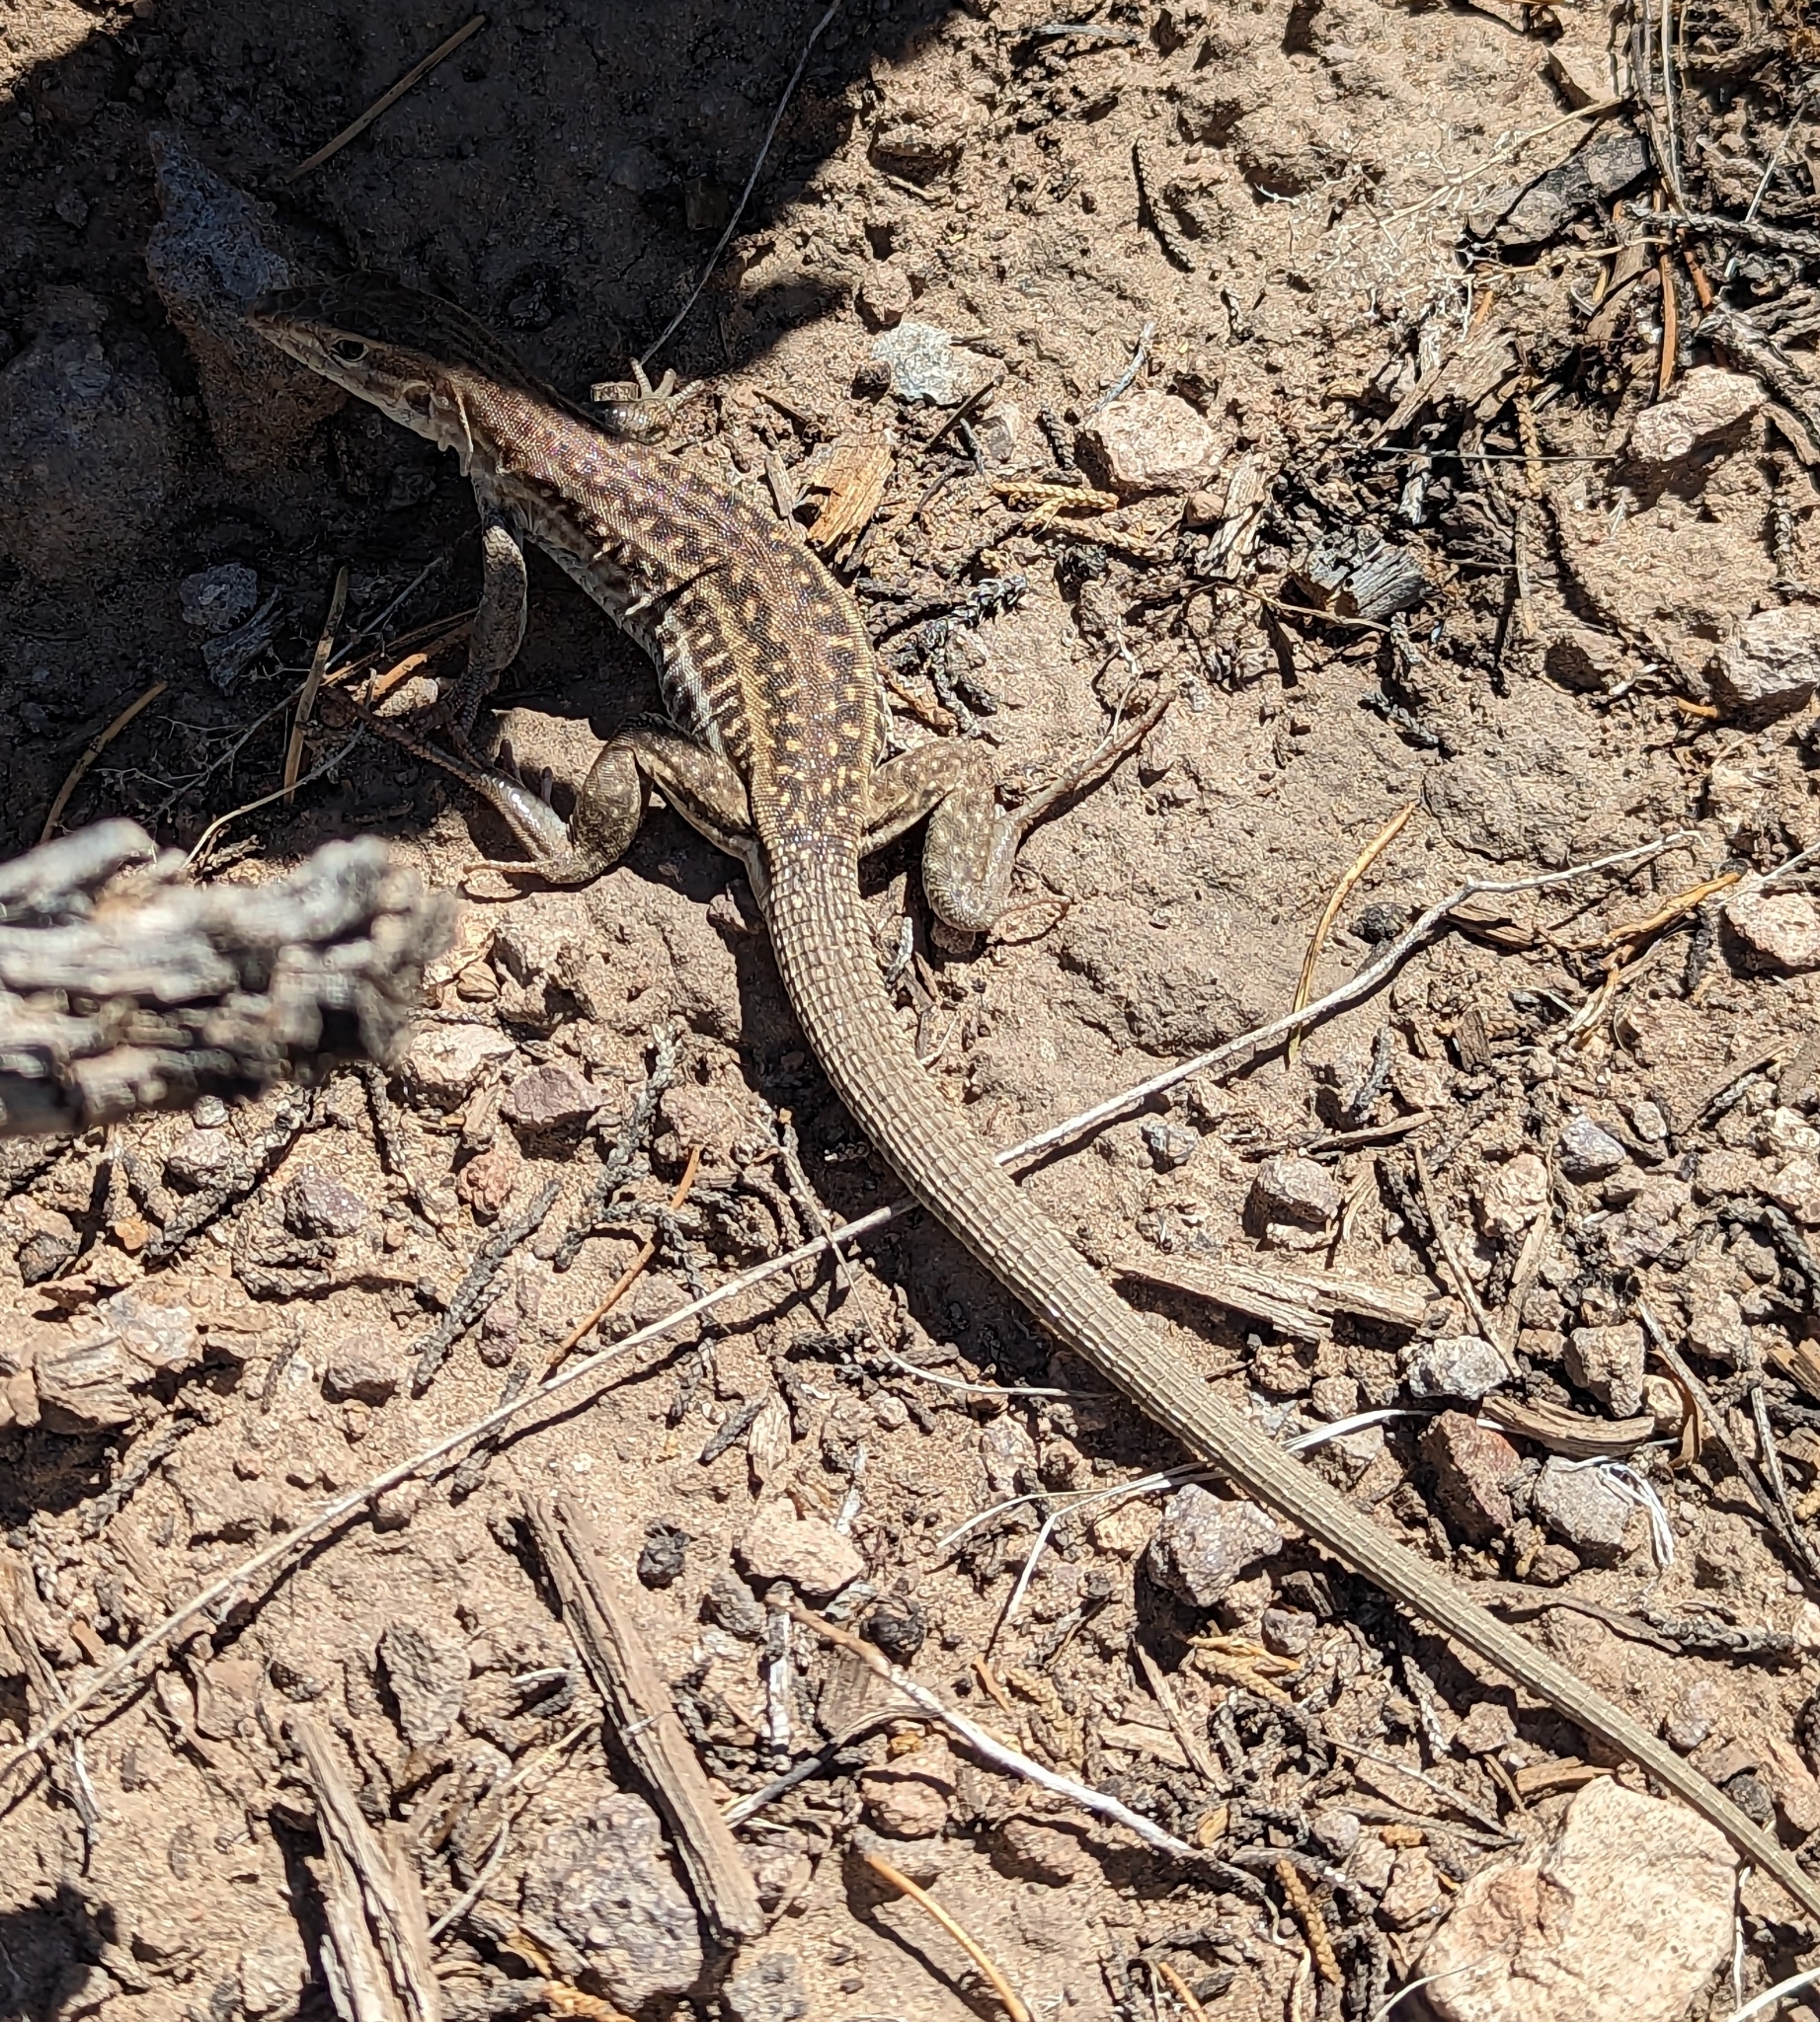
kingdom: Animalia
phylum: Chordata
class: Squamata
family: Teiidae
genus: Aspidoscelis
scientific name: Aspidoscelis exsanguis
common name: Chihuahuan spotted whiptail
